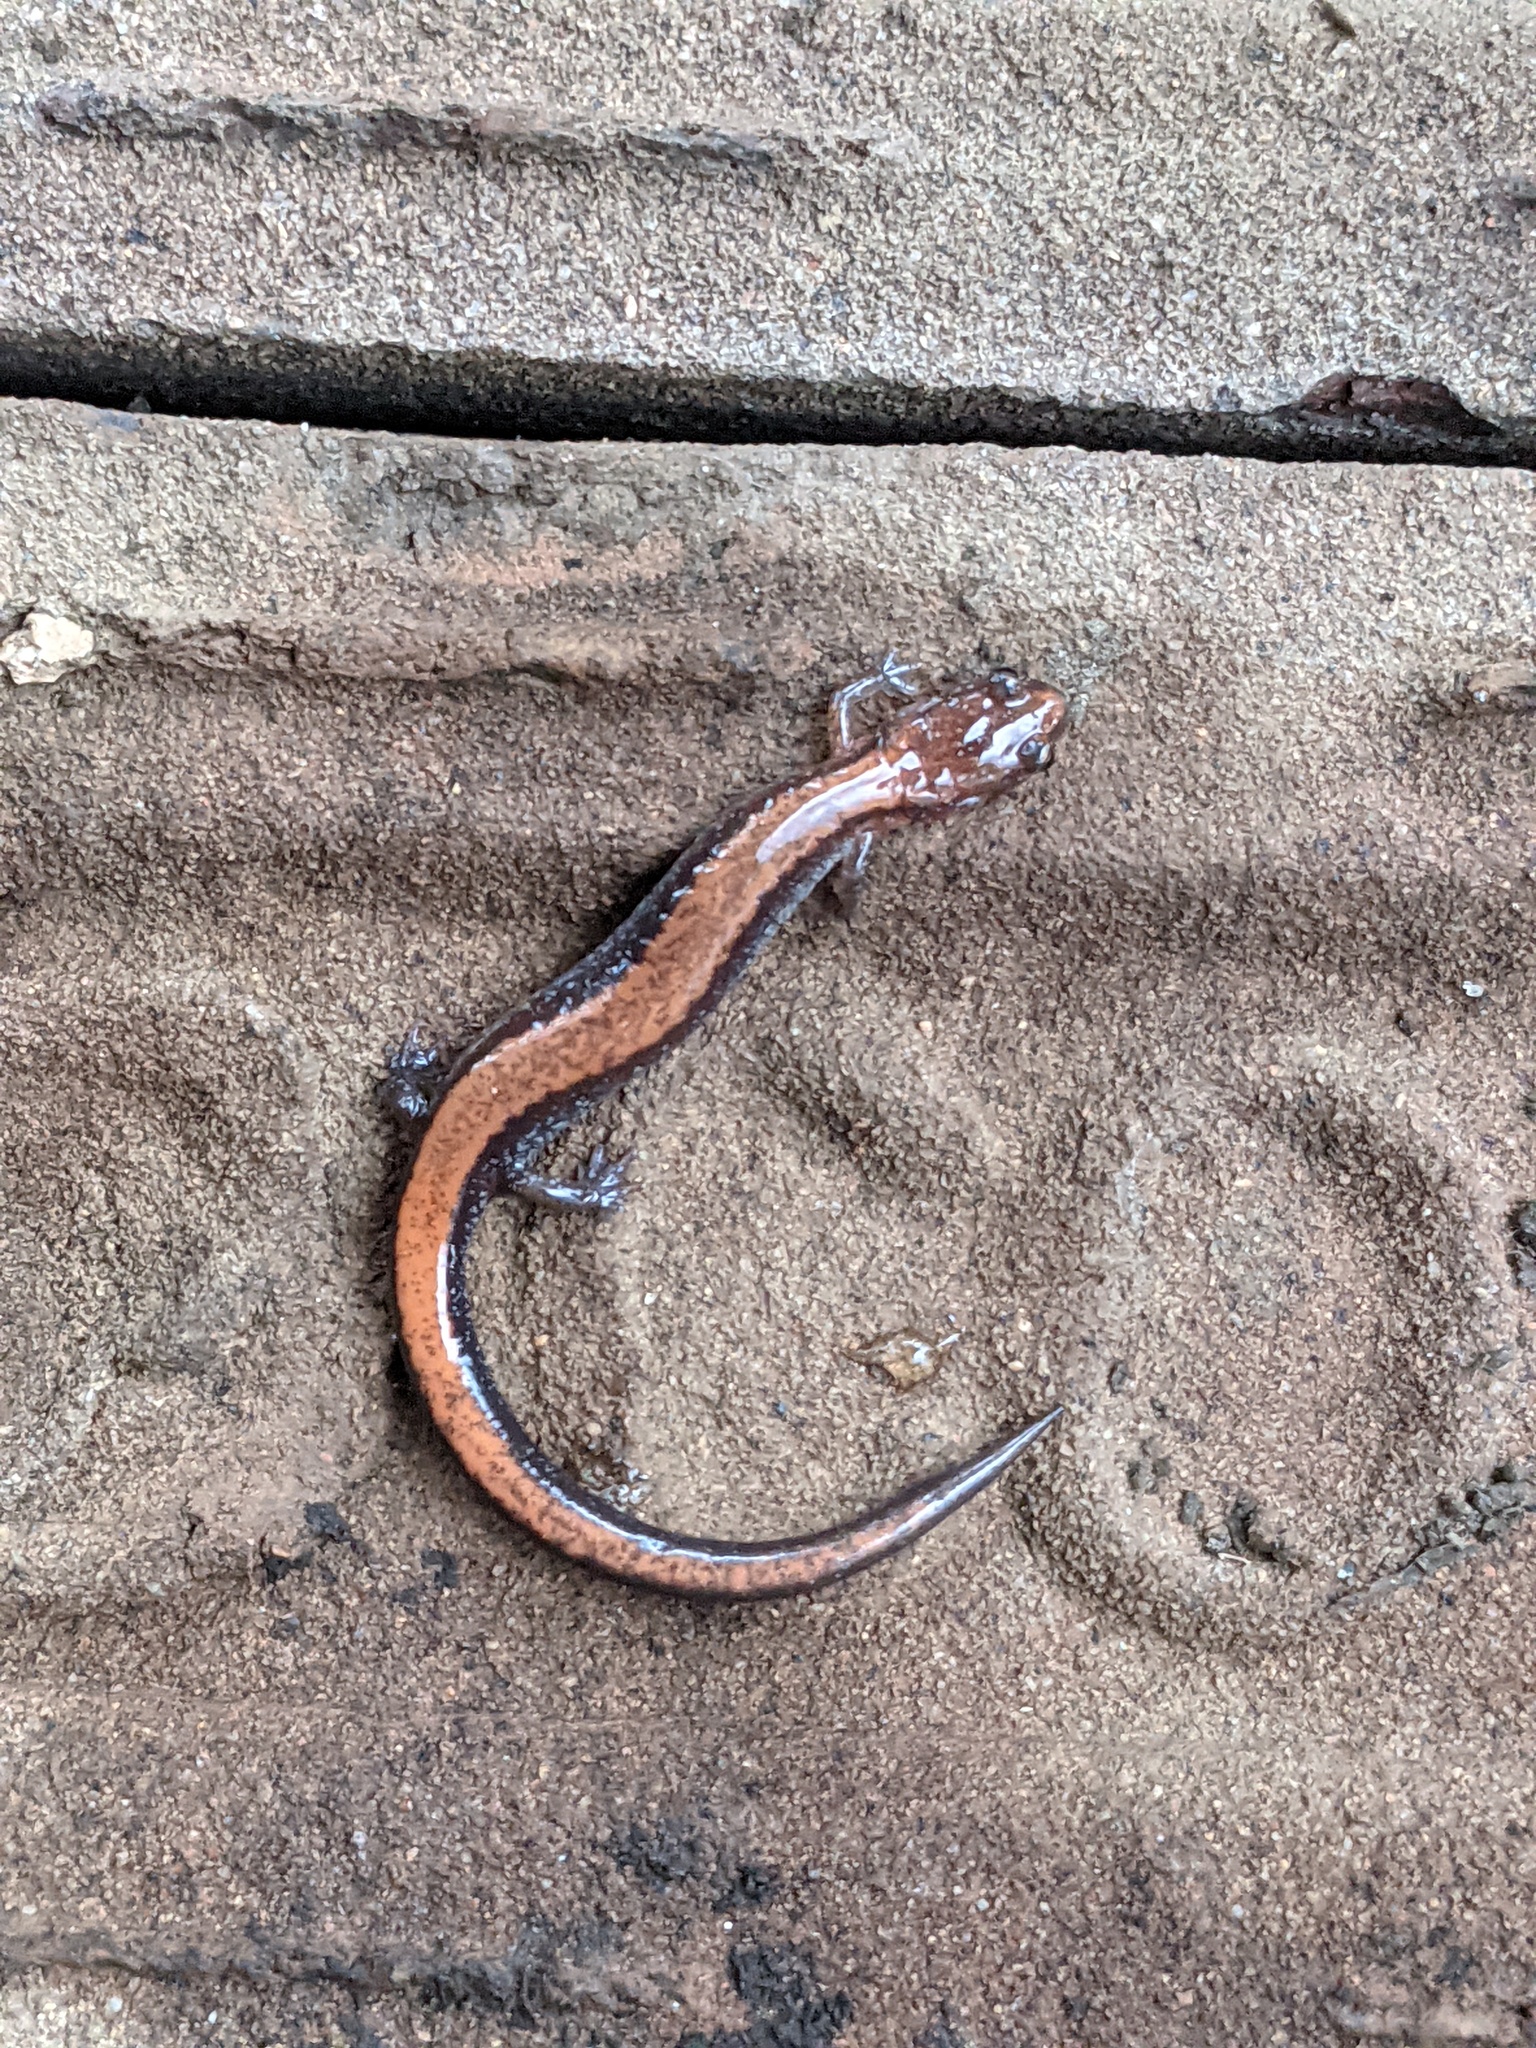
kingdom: Animalia
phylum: Chordata
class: Amphibia
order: Caudata
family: Plethodontidae
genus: Plethodon
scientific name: Plethodon cinereus
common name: Redback salamander
